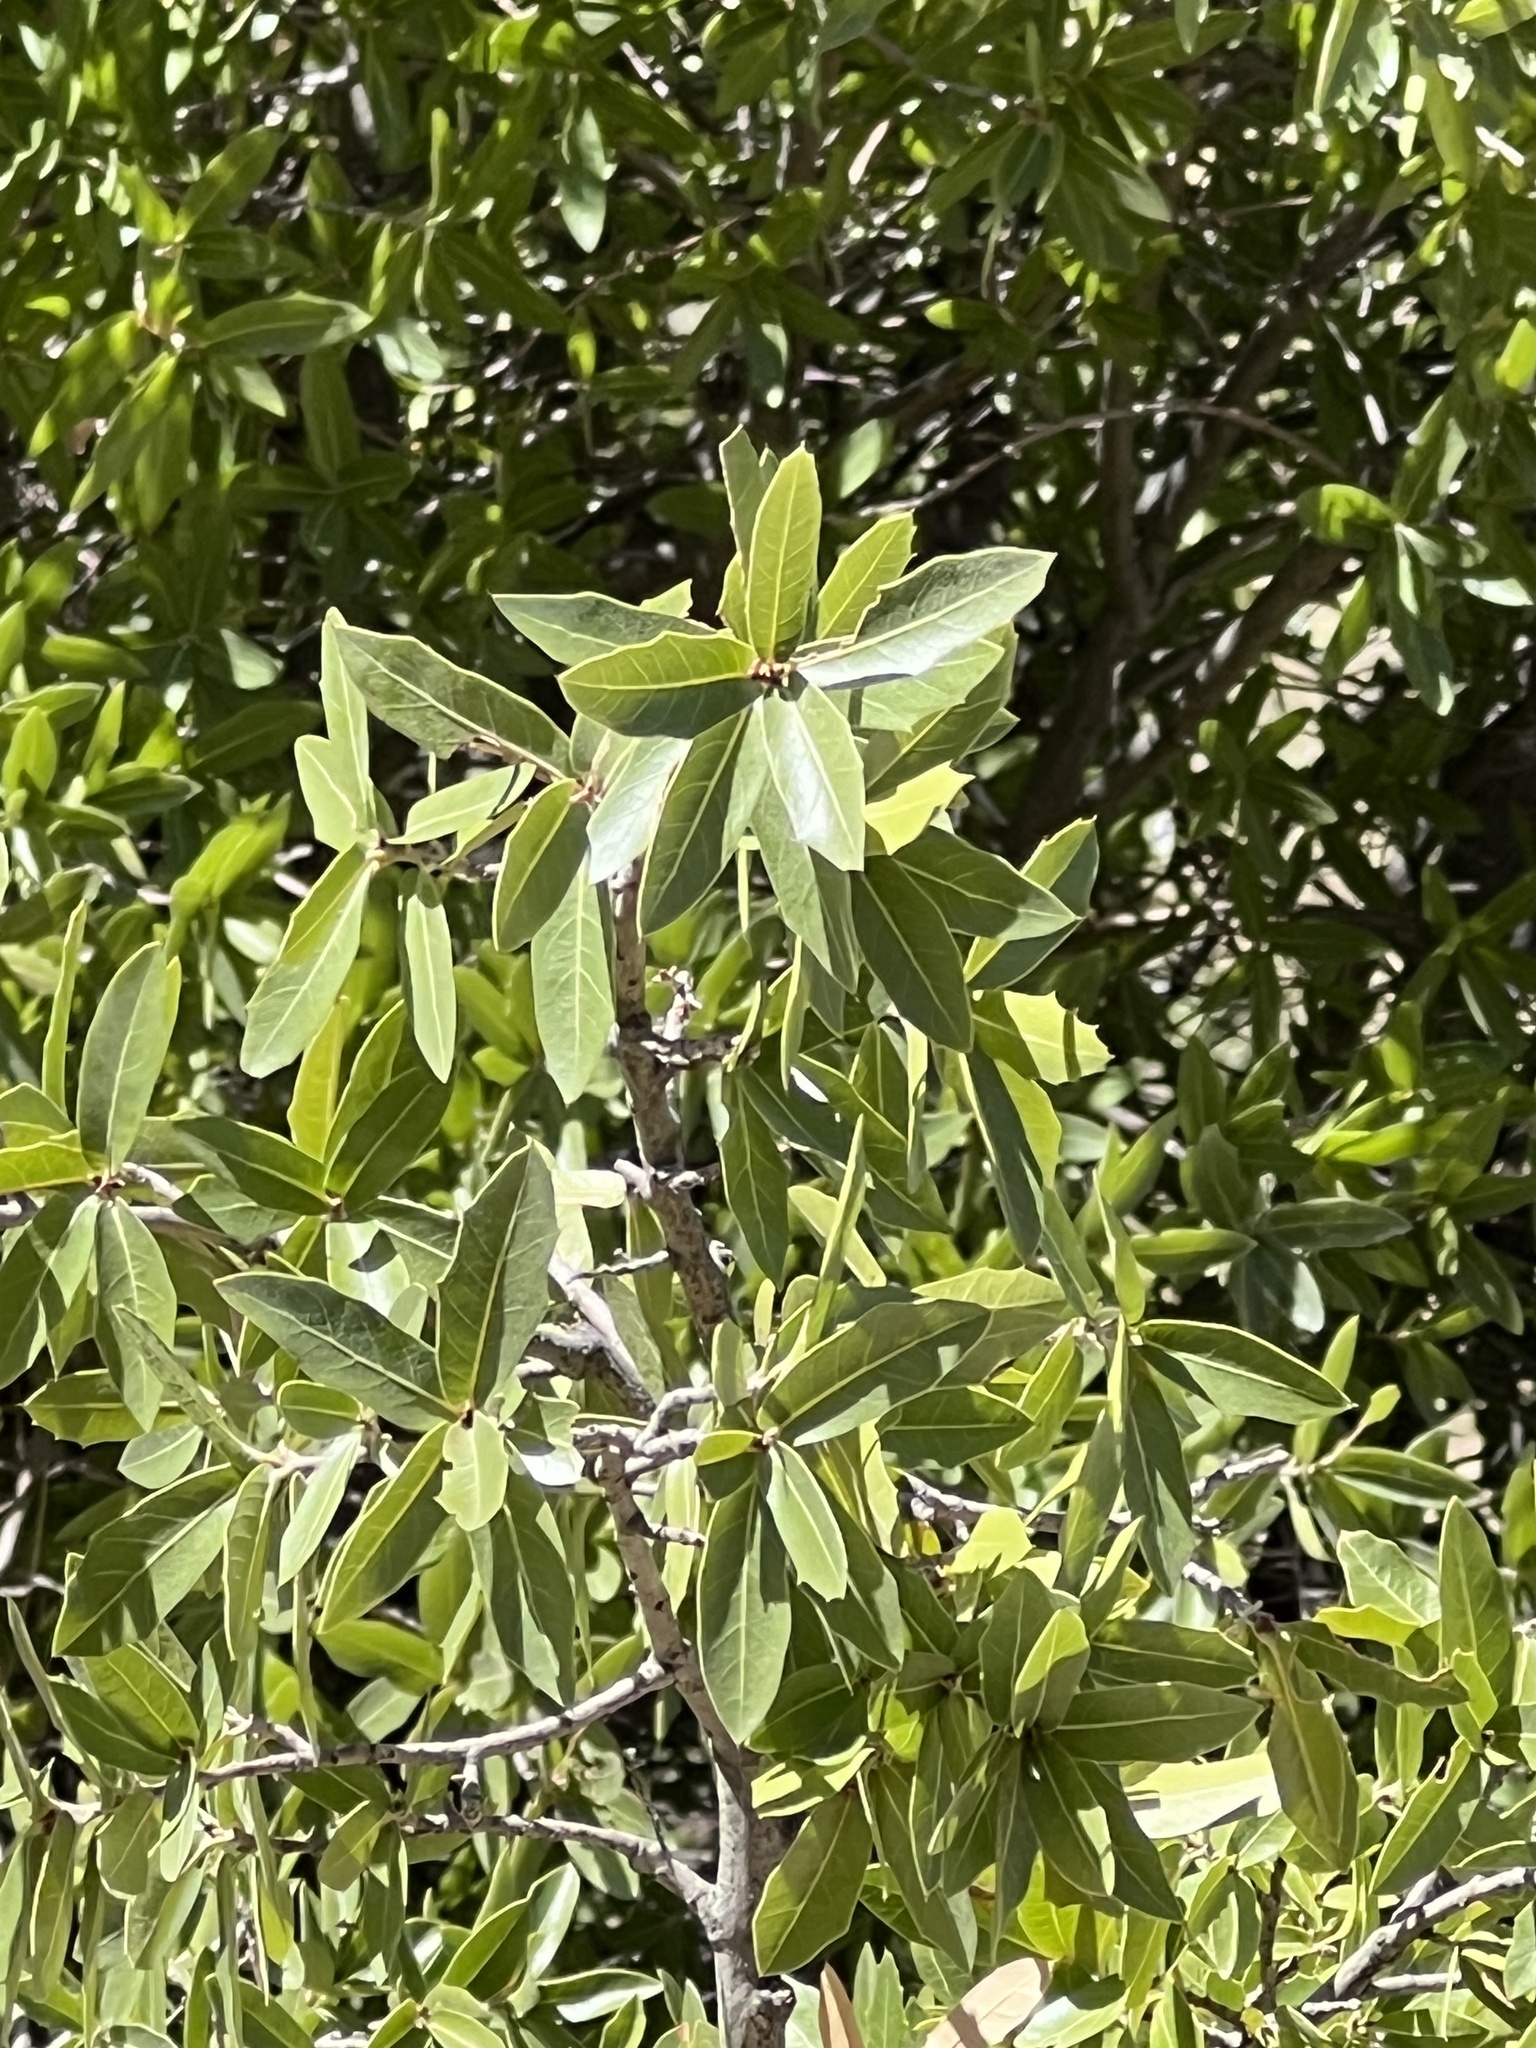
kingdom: Plantae
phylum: Tracheophyta
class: Magnoliopsida
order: Fagales
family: Fagaceae
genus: Quercus
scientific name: Quercus emoryi
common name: Emory oak
